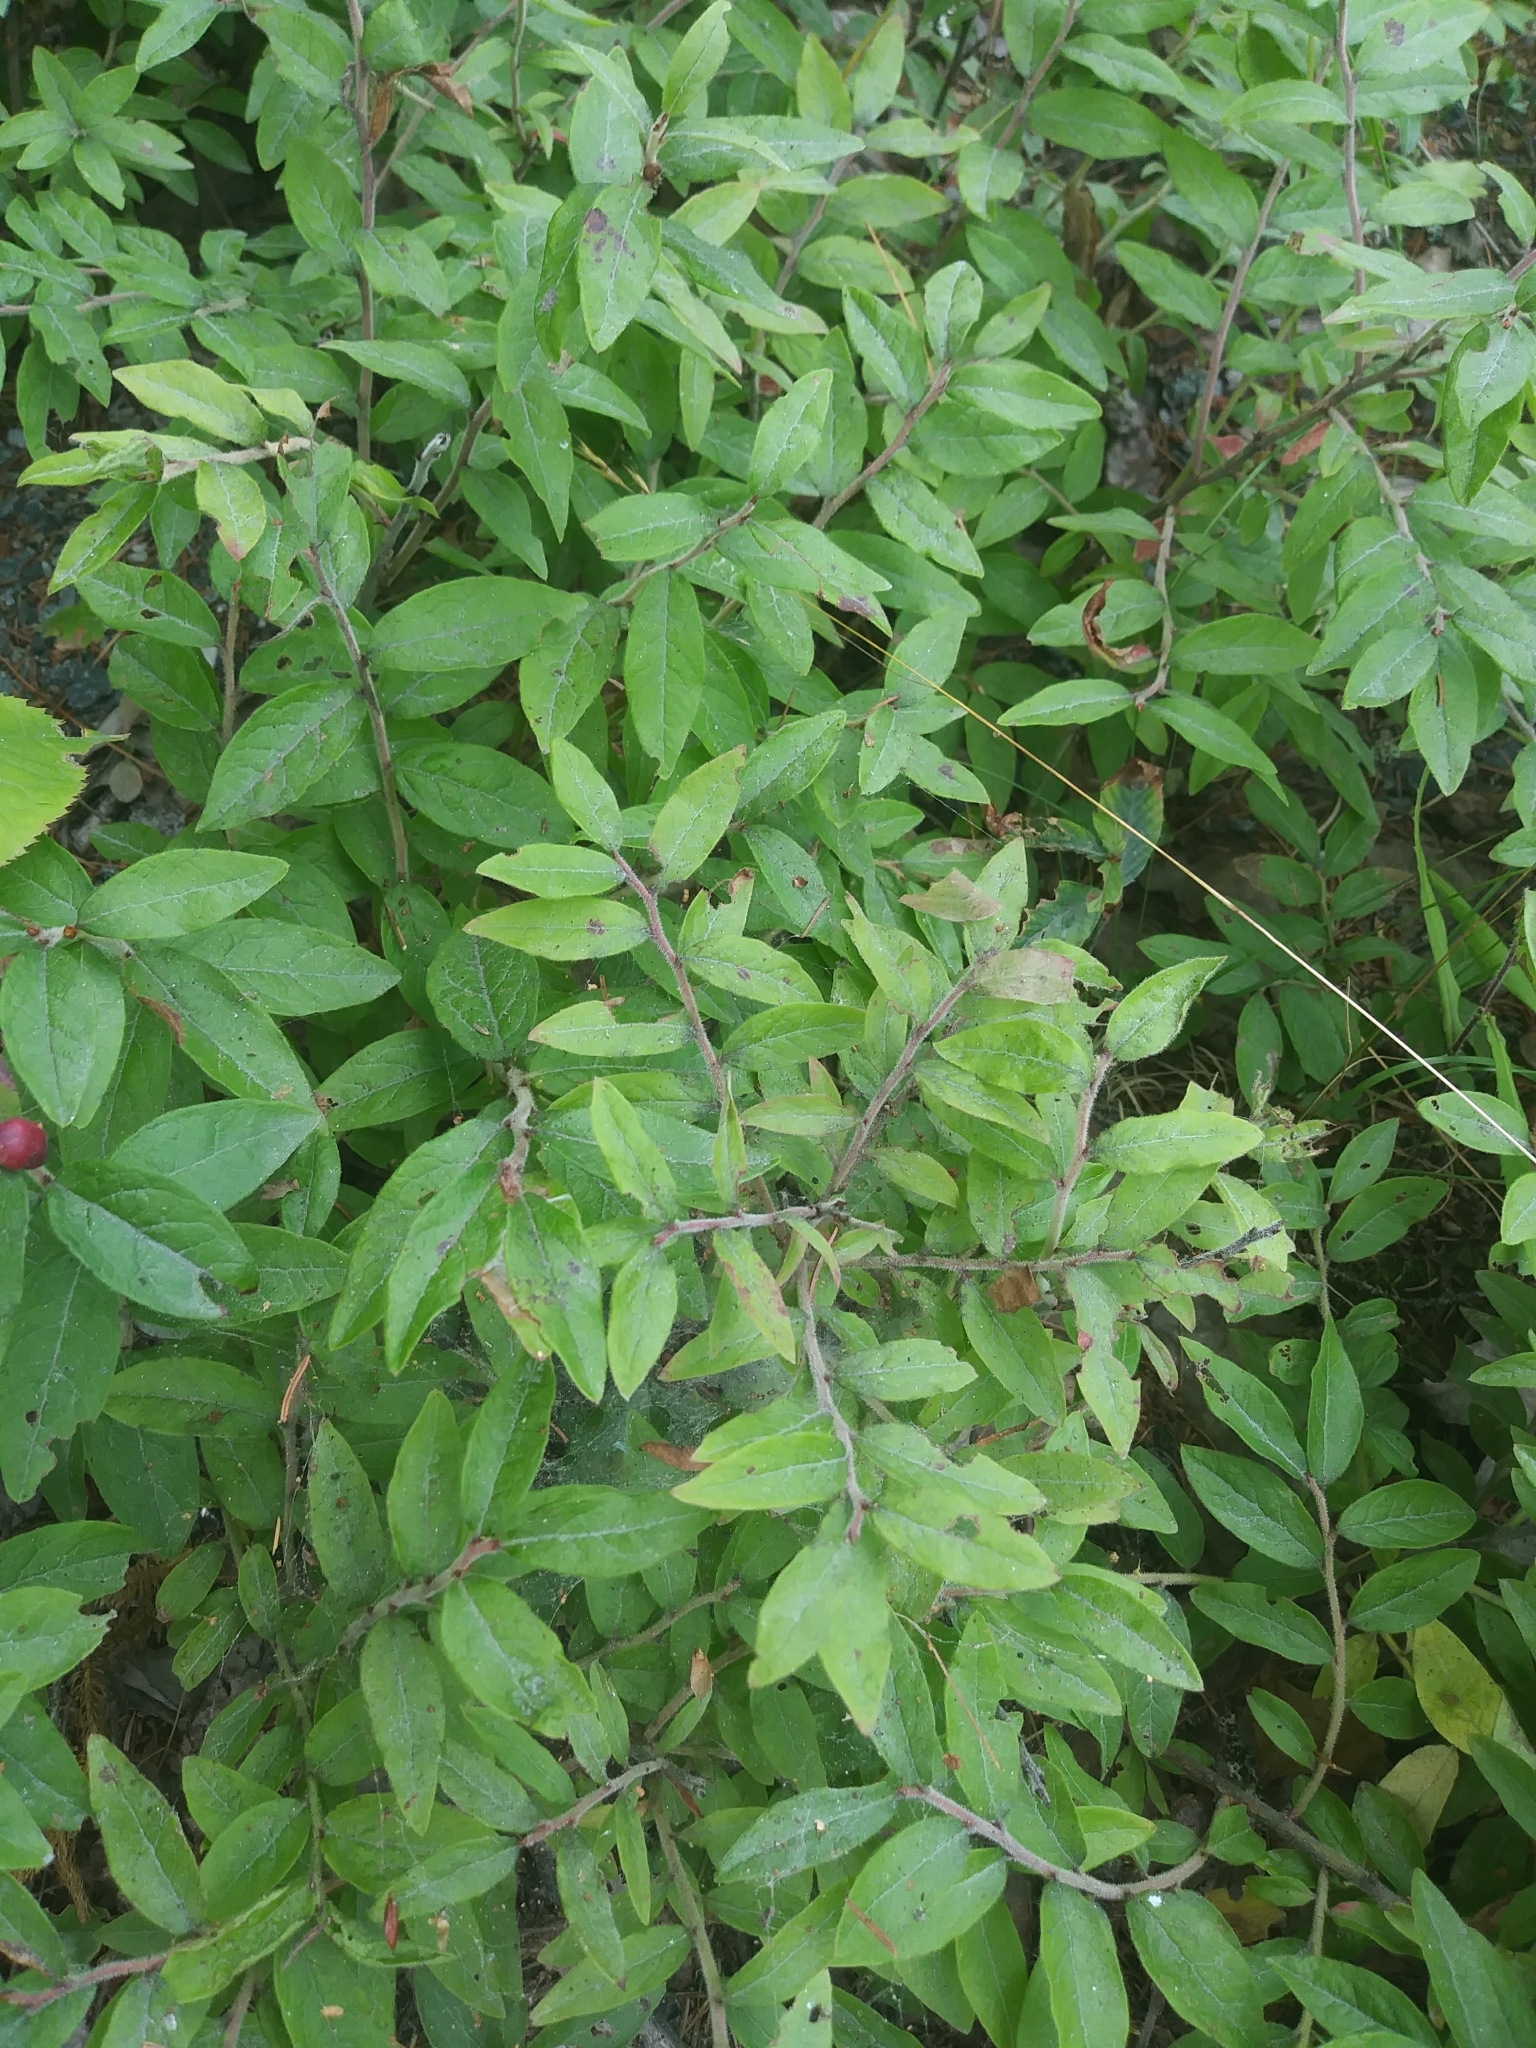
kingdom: Plantae
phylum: Tracheophyta
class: Magnoliopsida
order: Ericales
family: Ericaceae
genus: Vaccinium
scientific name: Vaccinium myrtilloides
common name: Canada blueberry
